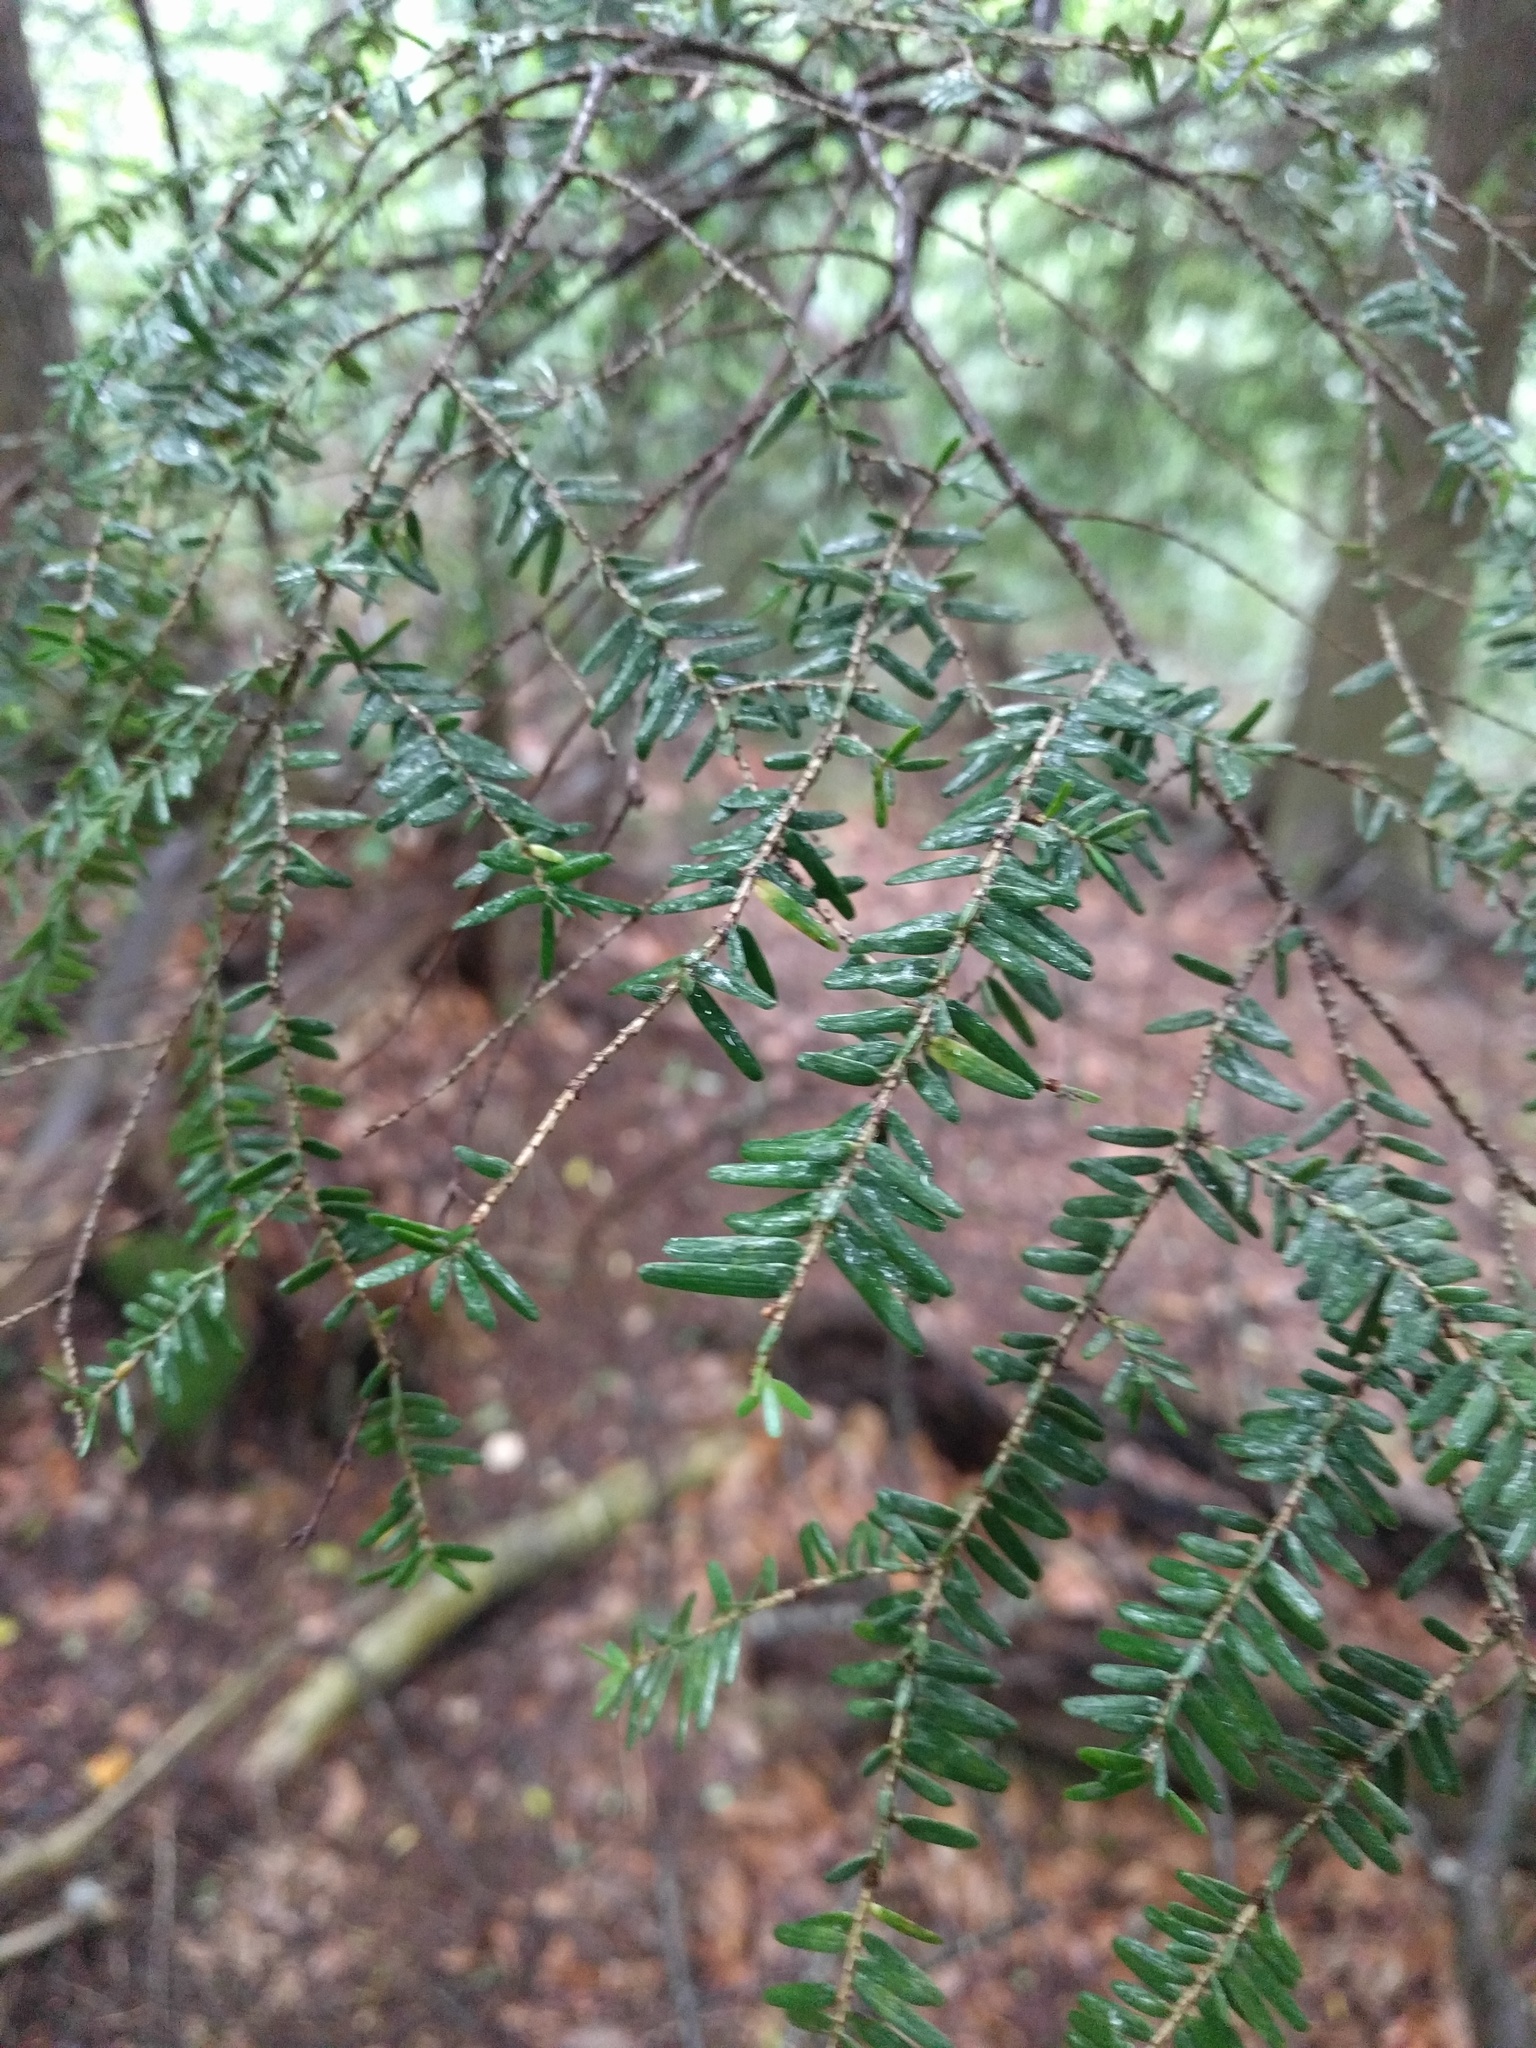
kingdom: Plantae
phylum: Tracheophyta
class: Pinopsida
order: Pinales
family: Pinaceae
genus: Tsuga
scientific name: Tsuga canadensis
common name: Eastern hemlock
